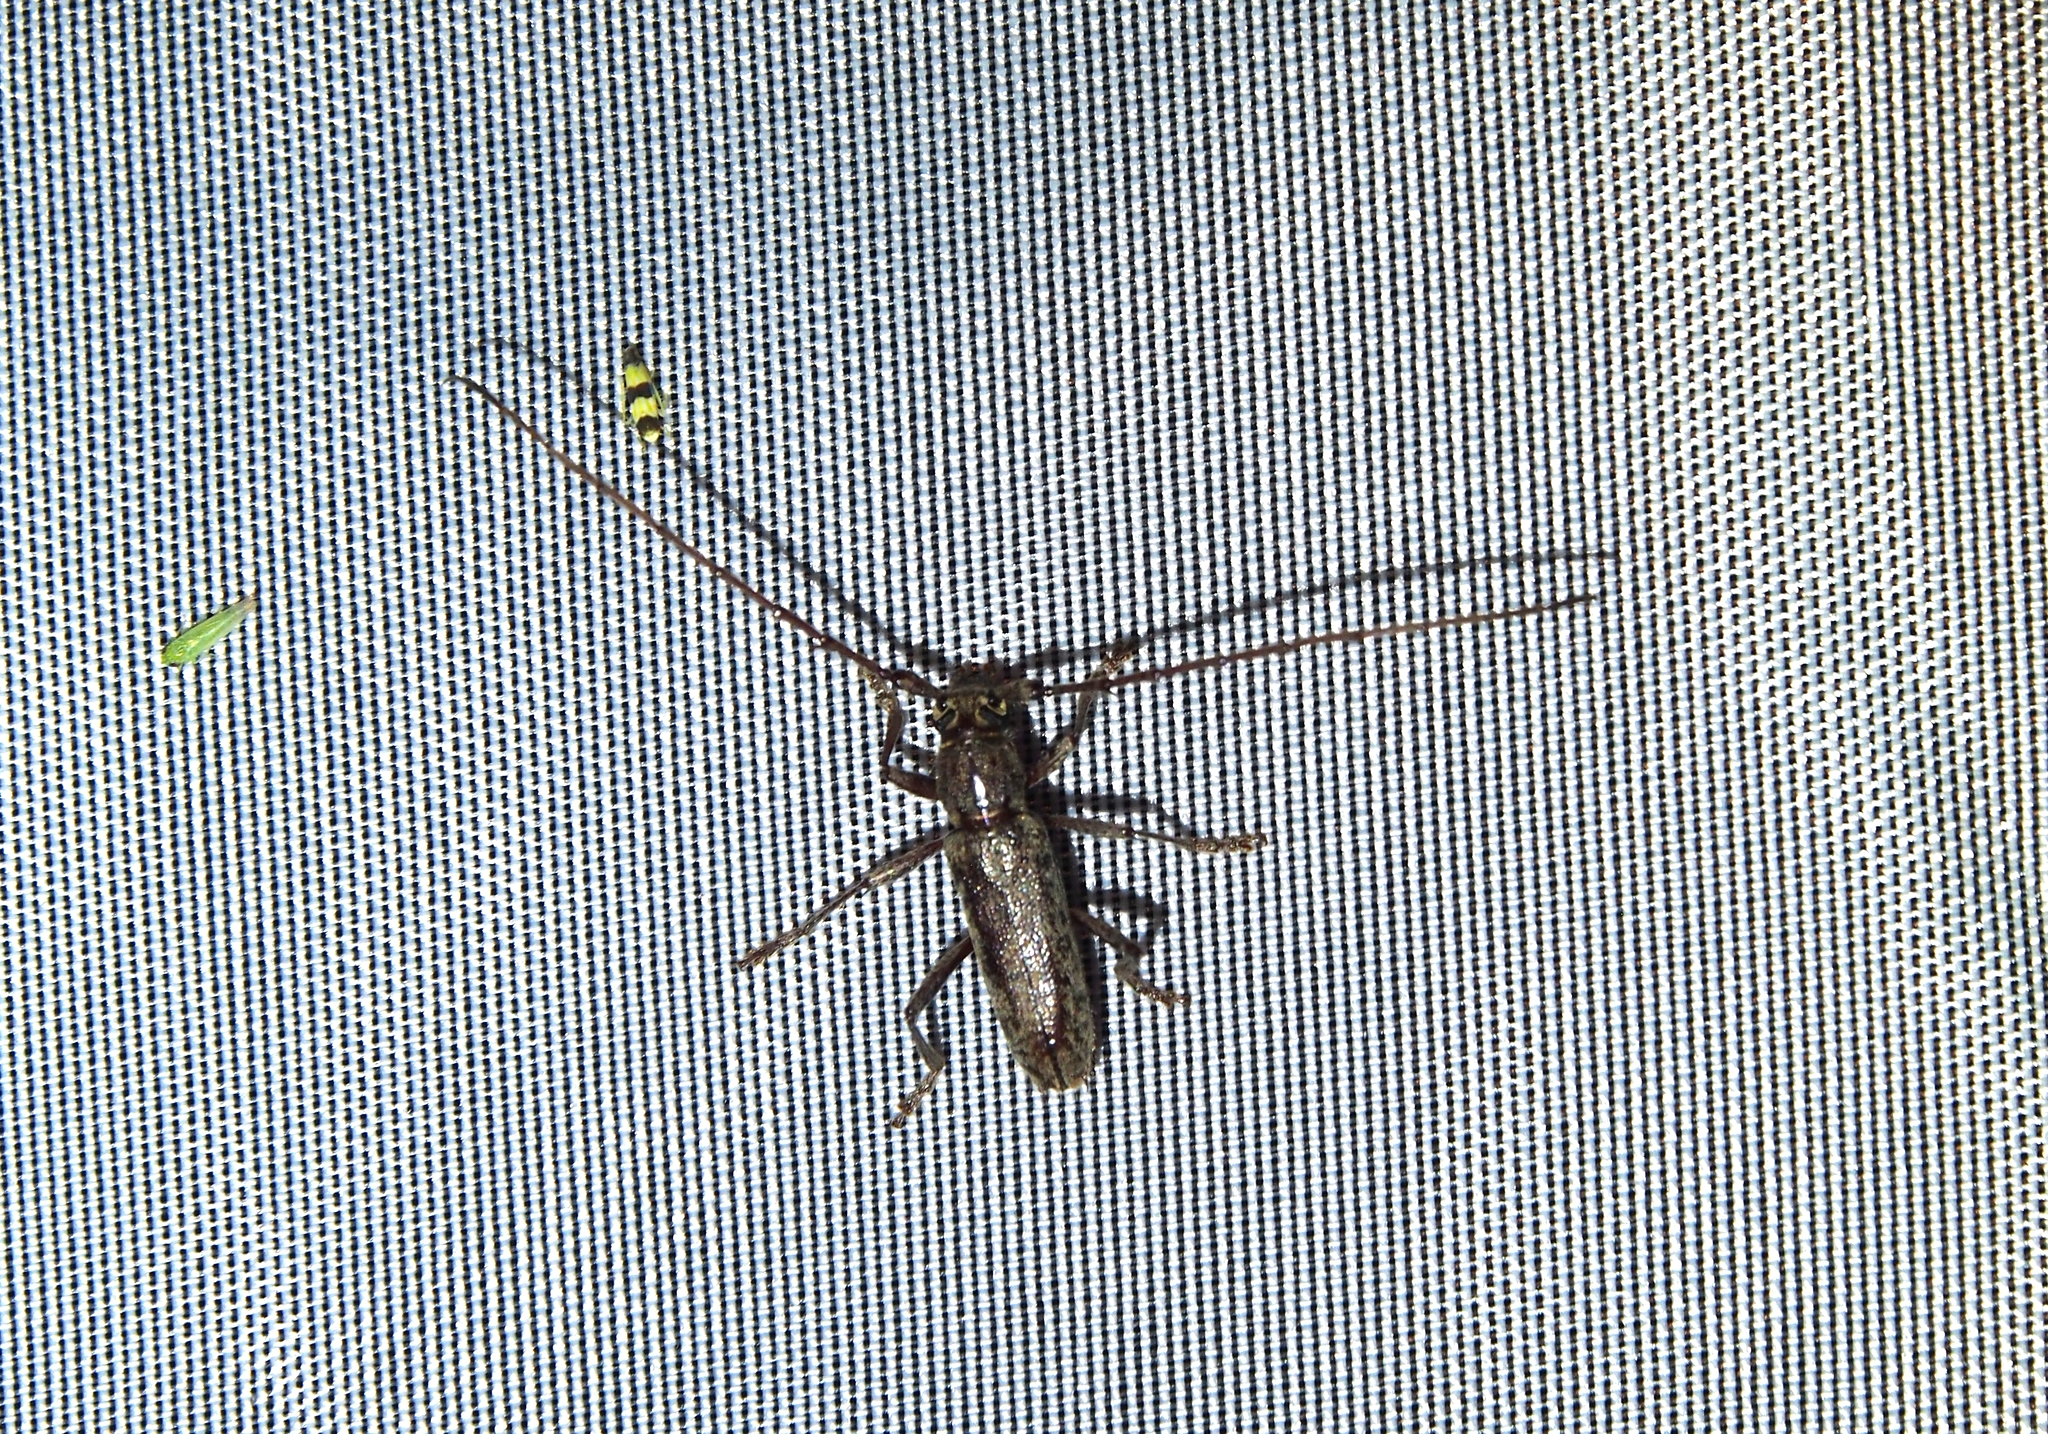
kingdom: Animalia
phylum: Arthropoda
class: Insecta
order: Coleoptera
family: Cerambycidae
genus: Elaphidion
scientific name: Elaphidion mucronatum
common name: Spined oak borer
